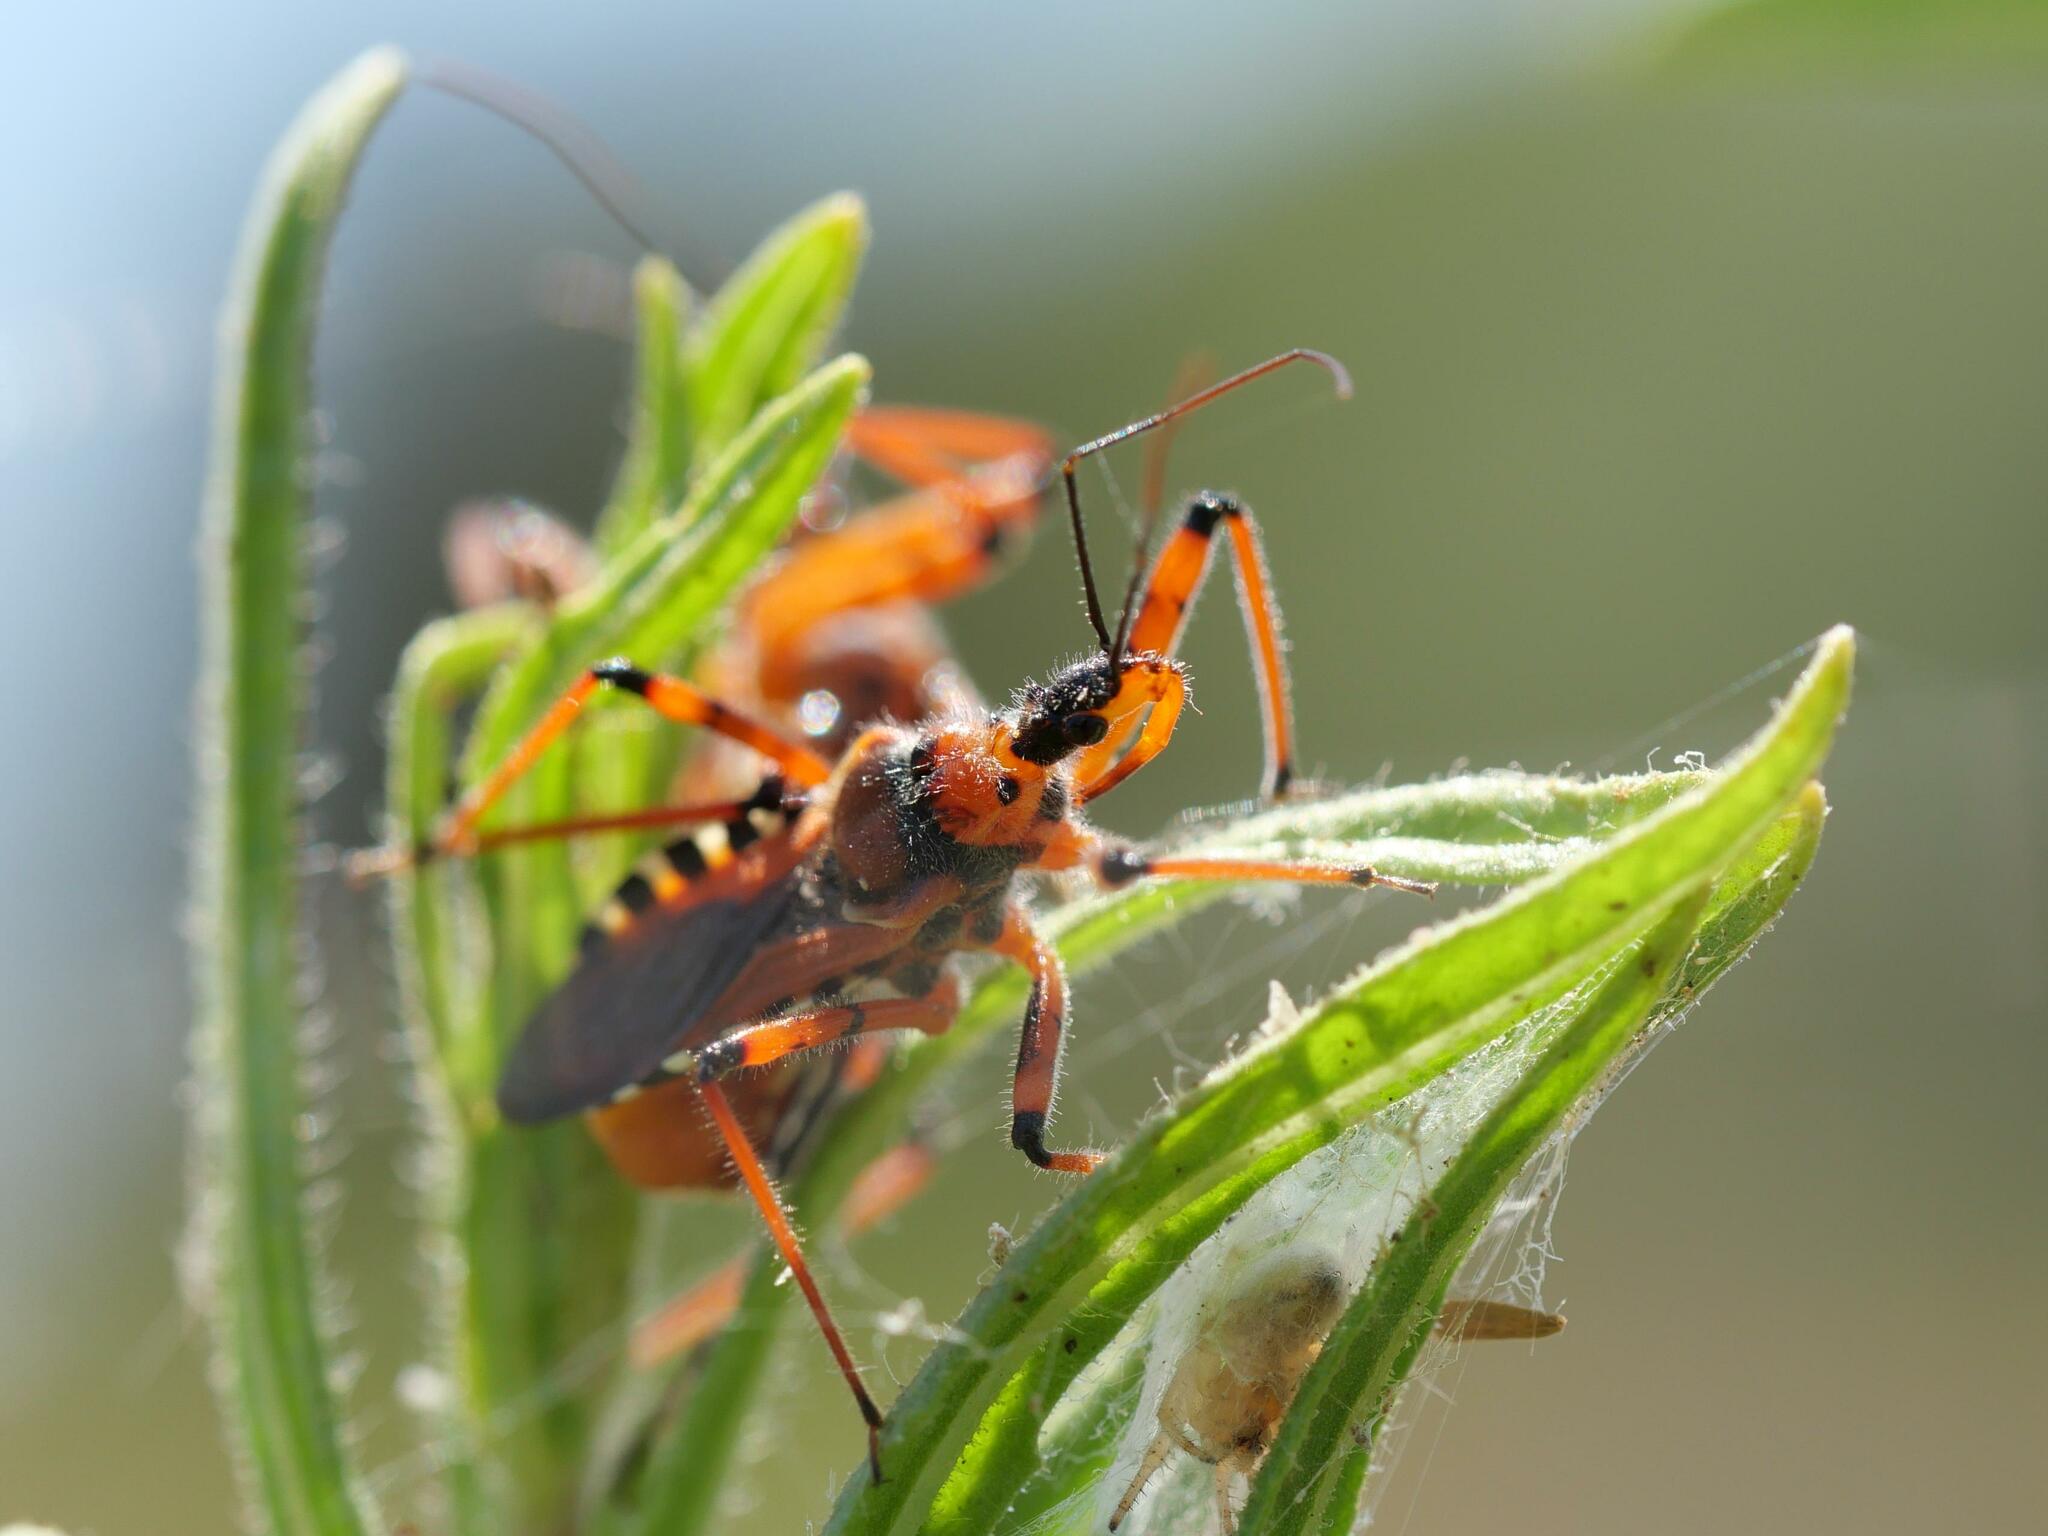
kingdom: Animalia
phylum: Arthropoda
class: Insecta
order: Hemiptera
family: Reduviidae
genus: Rhynocoris
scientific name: Rhynocoris iracundus
